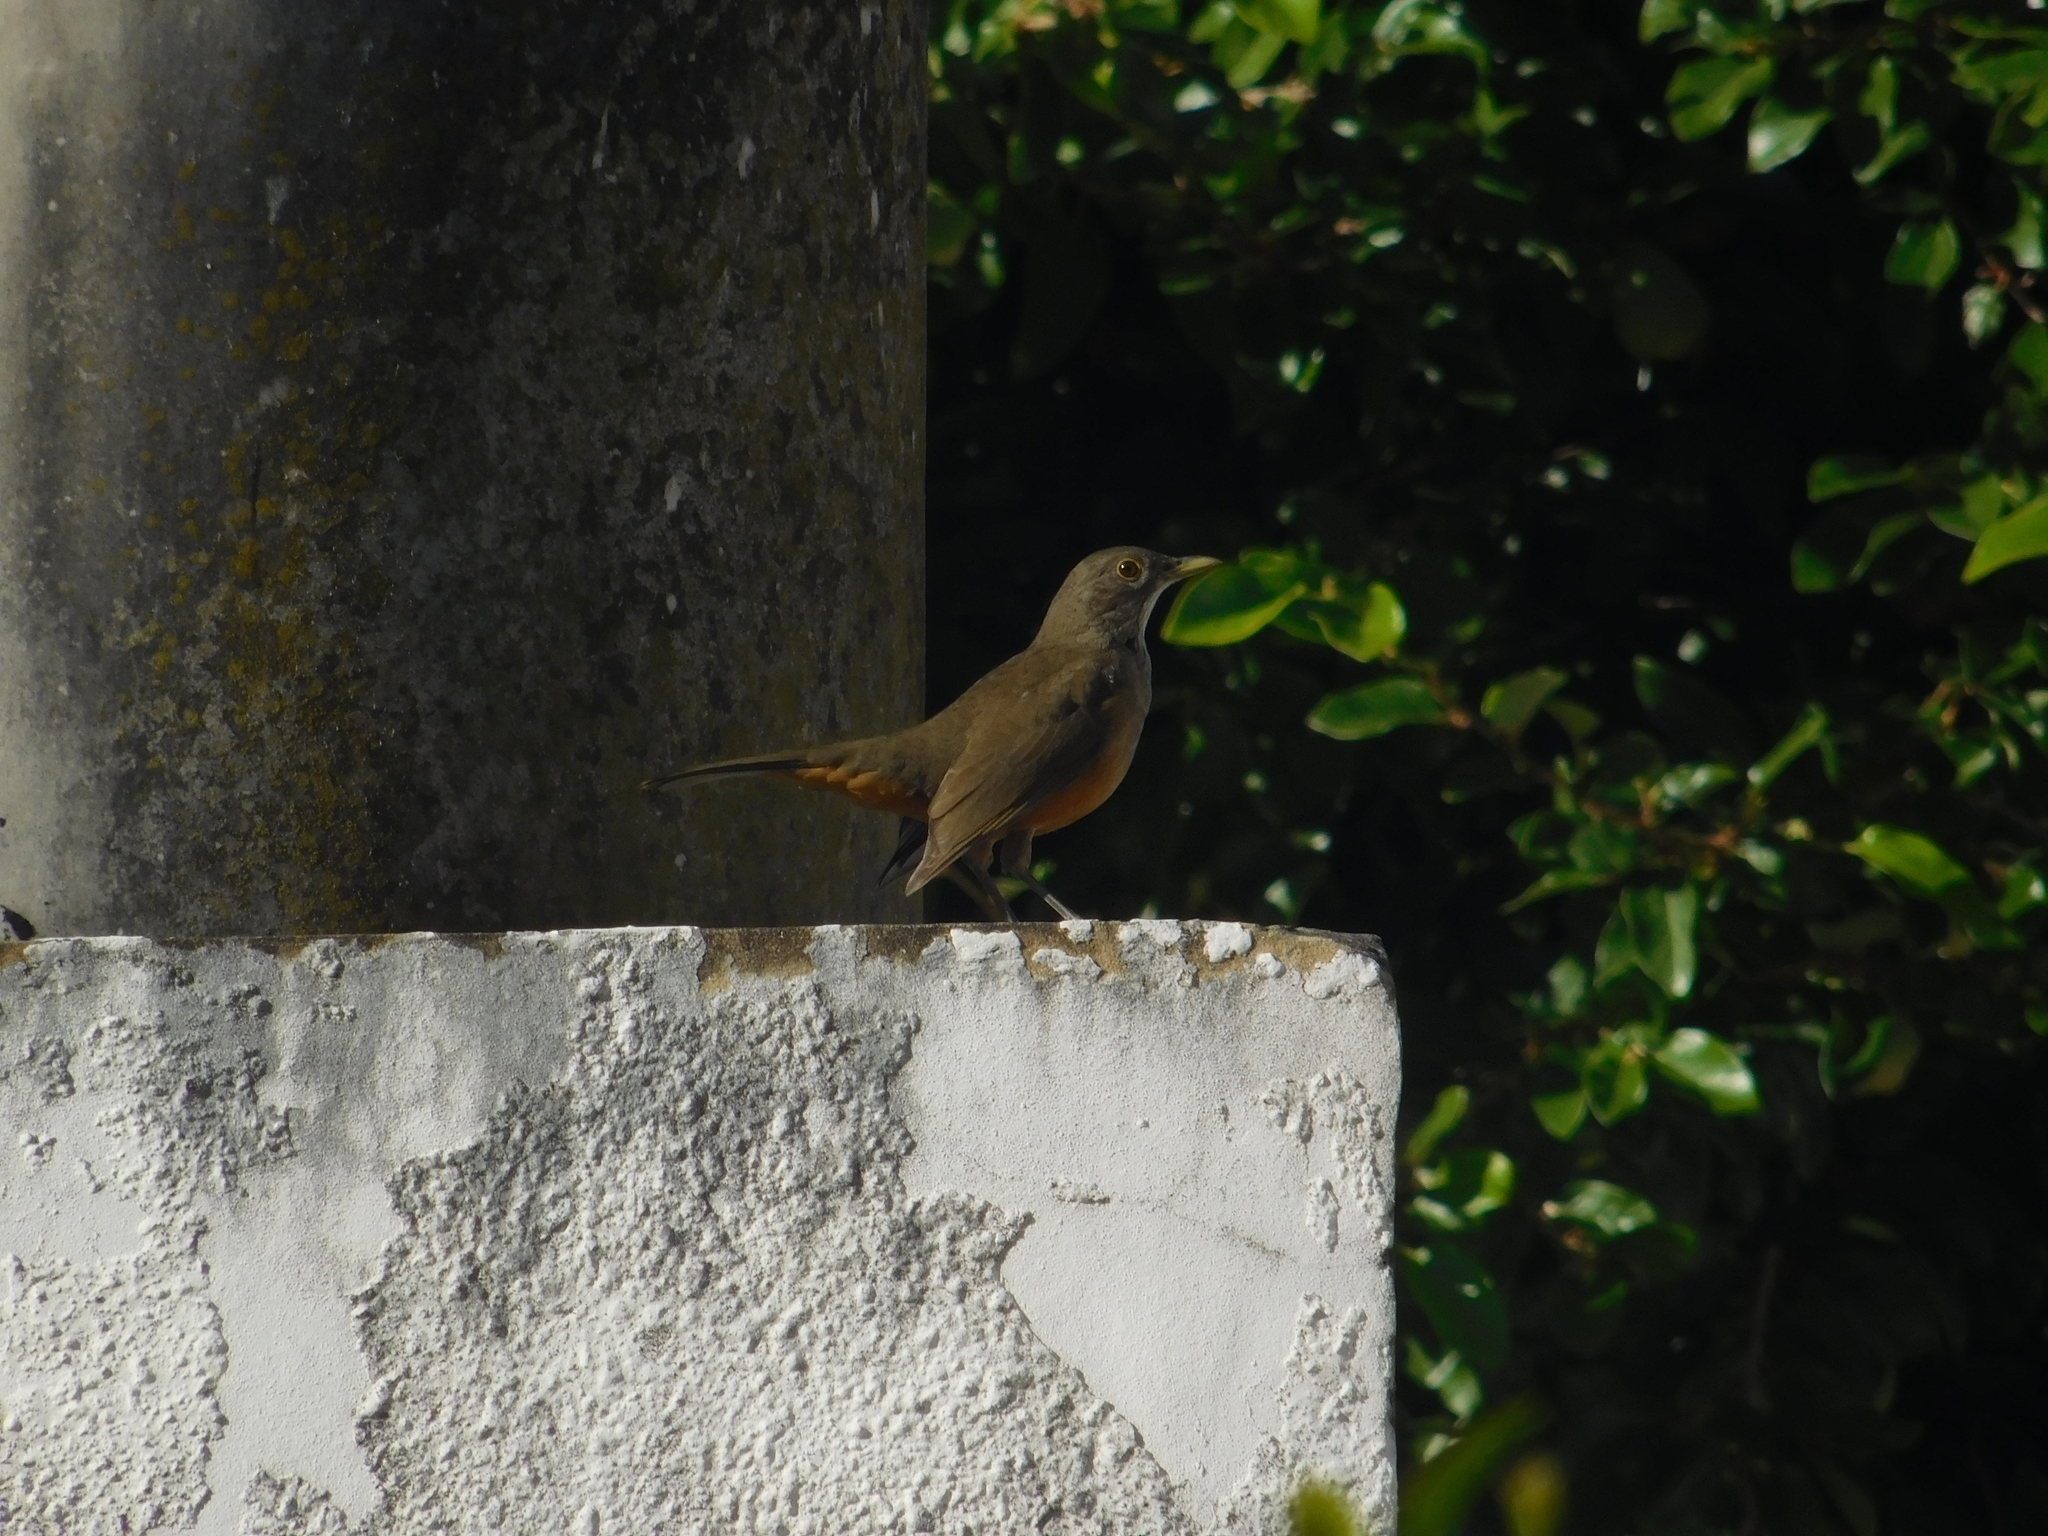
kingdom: Animalia
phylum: Chordata
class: Aves
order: Passeriformes
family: Turdidae
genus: Turdus
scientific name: Turdus rufiventris
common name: Rufous-bellied thrush
